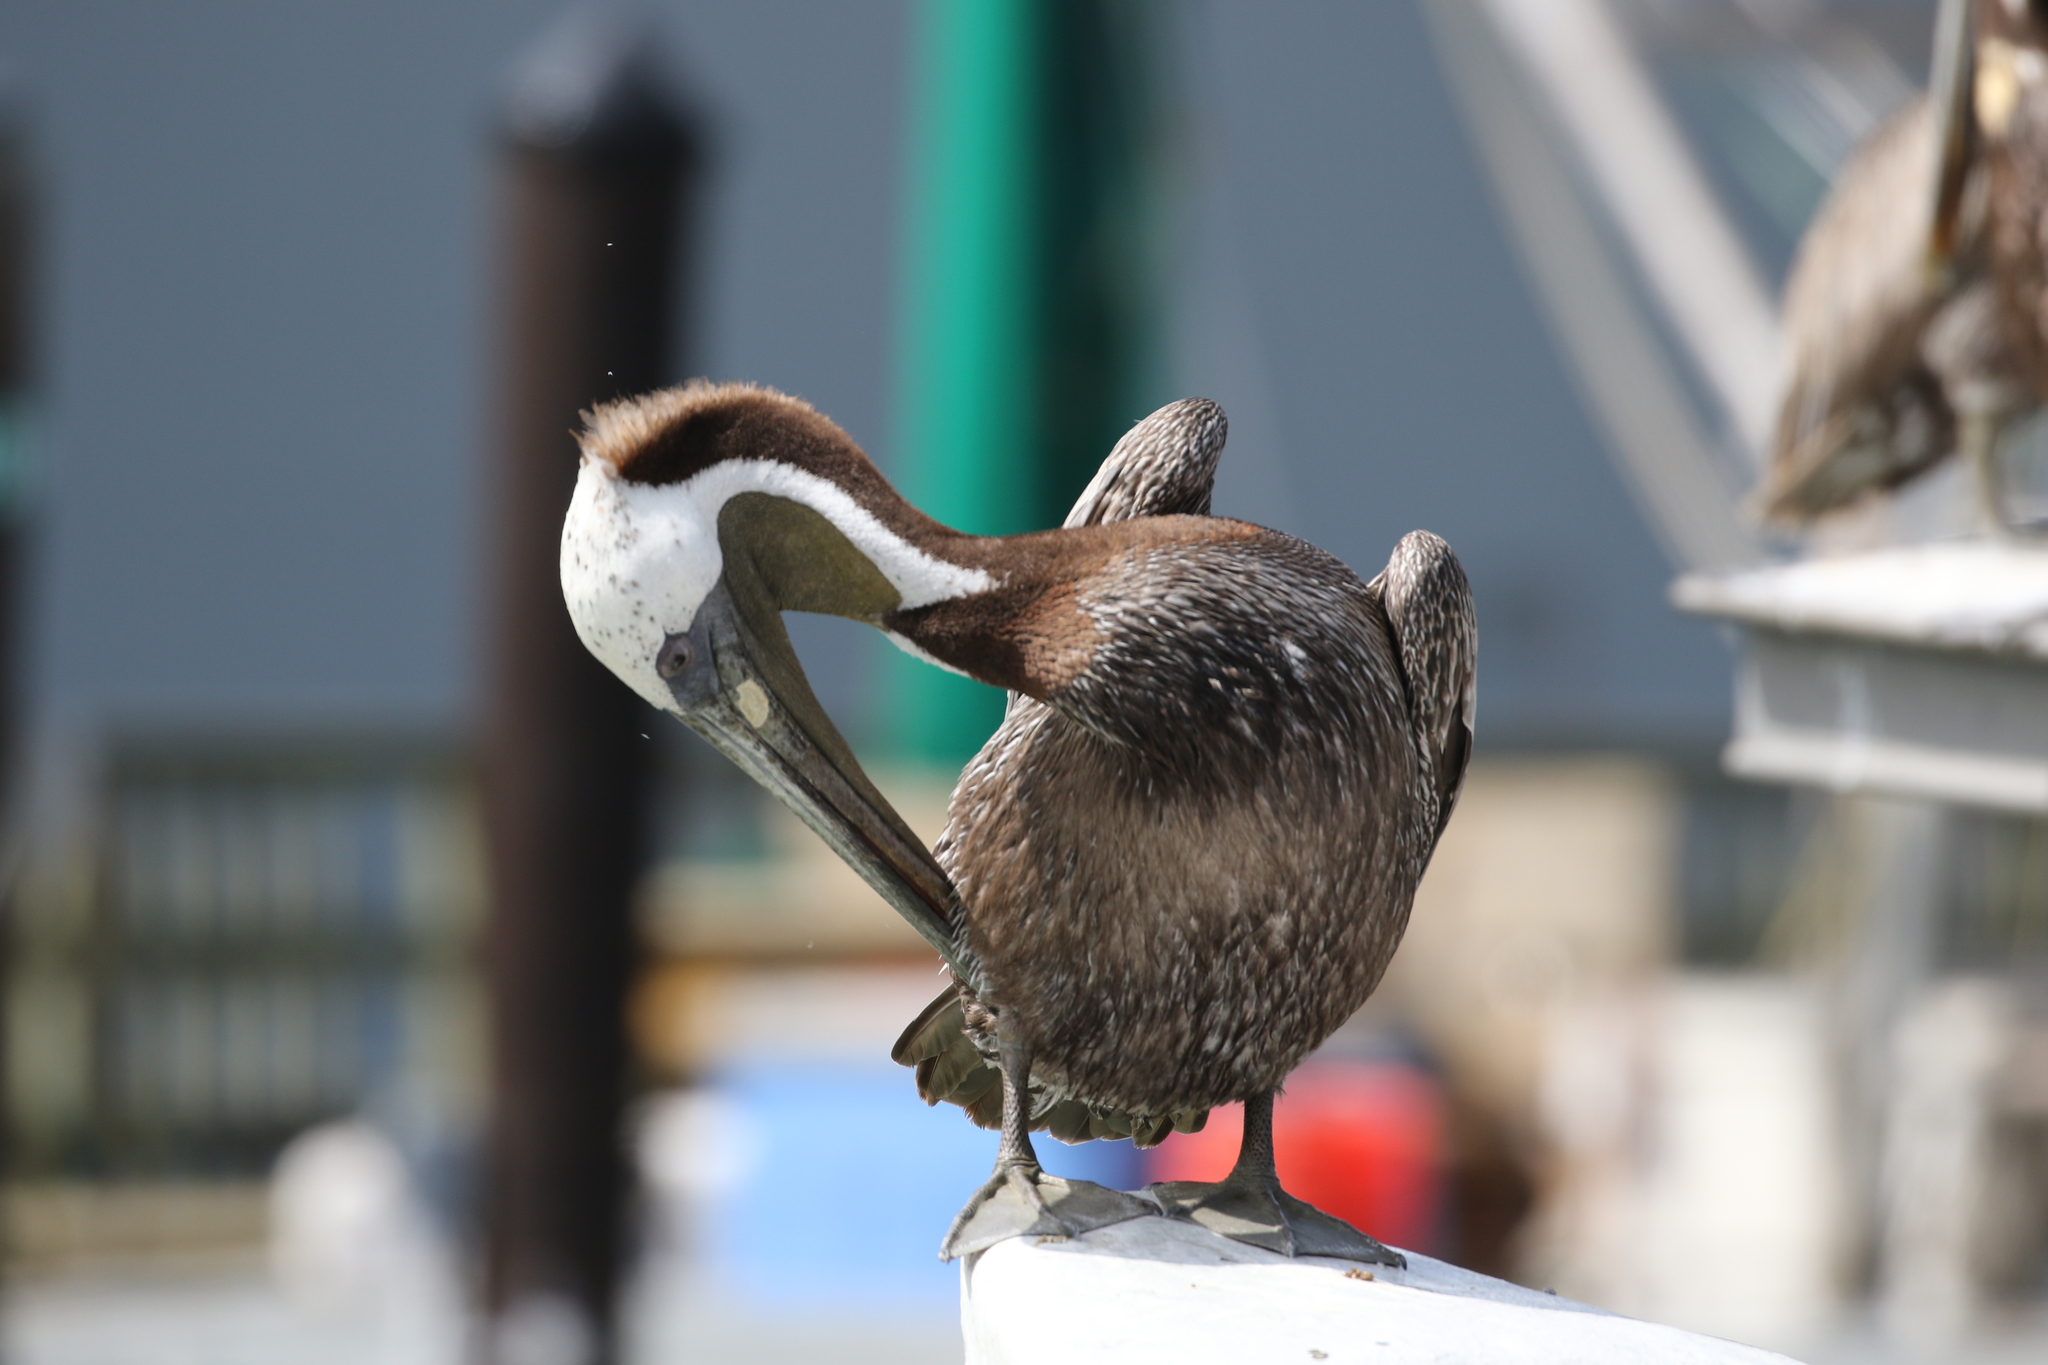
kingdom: Animalia
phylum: Chordata
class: Aves
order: Pelecaniformes
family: Pelecanidae
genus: Pelecanus
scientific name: Pelecanus occidentalis
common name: Brown pelican
